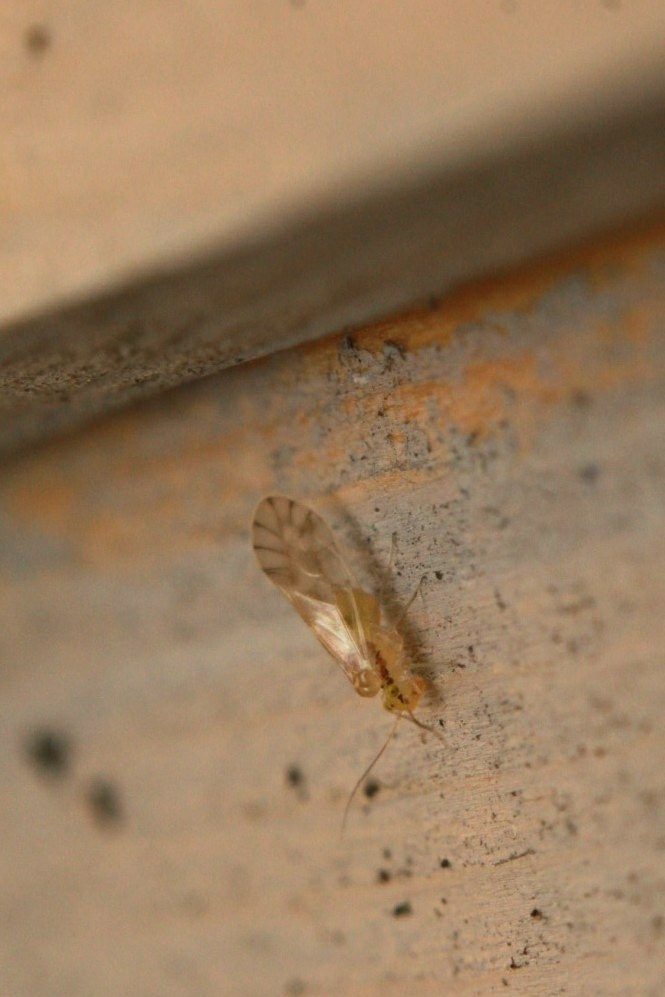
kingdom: Animalia
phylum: Arthropoda
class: Insecta
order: Psocodea
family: Paracaeciliidae
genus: Chilenocaecilius
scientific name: Chilenocaecilius ornatipennis
